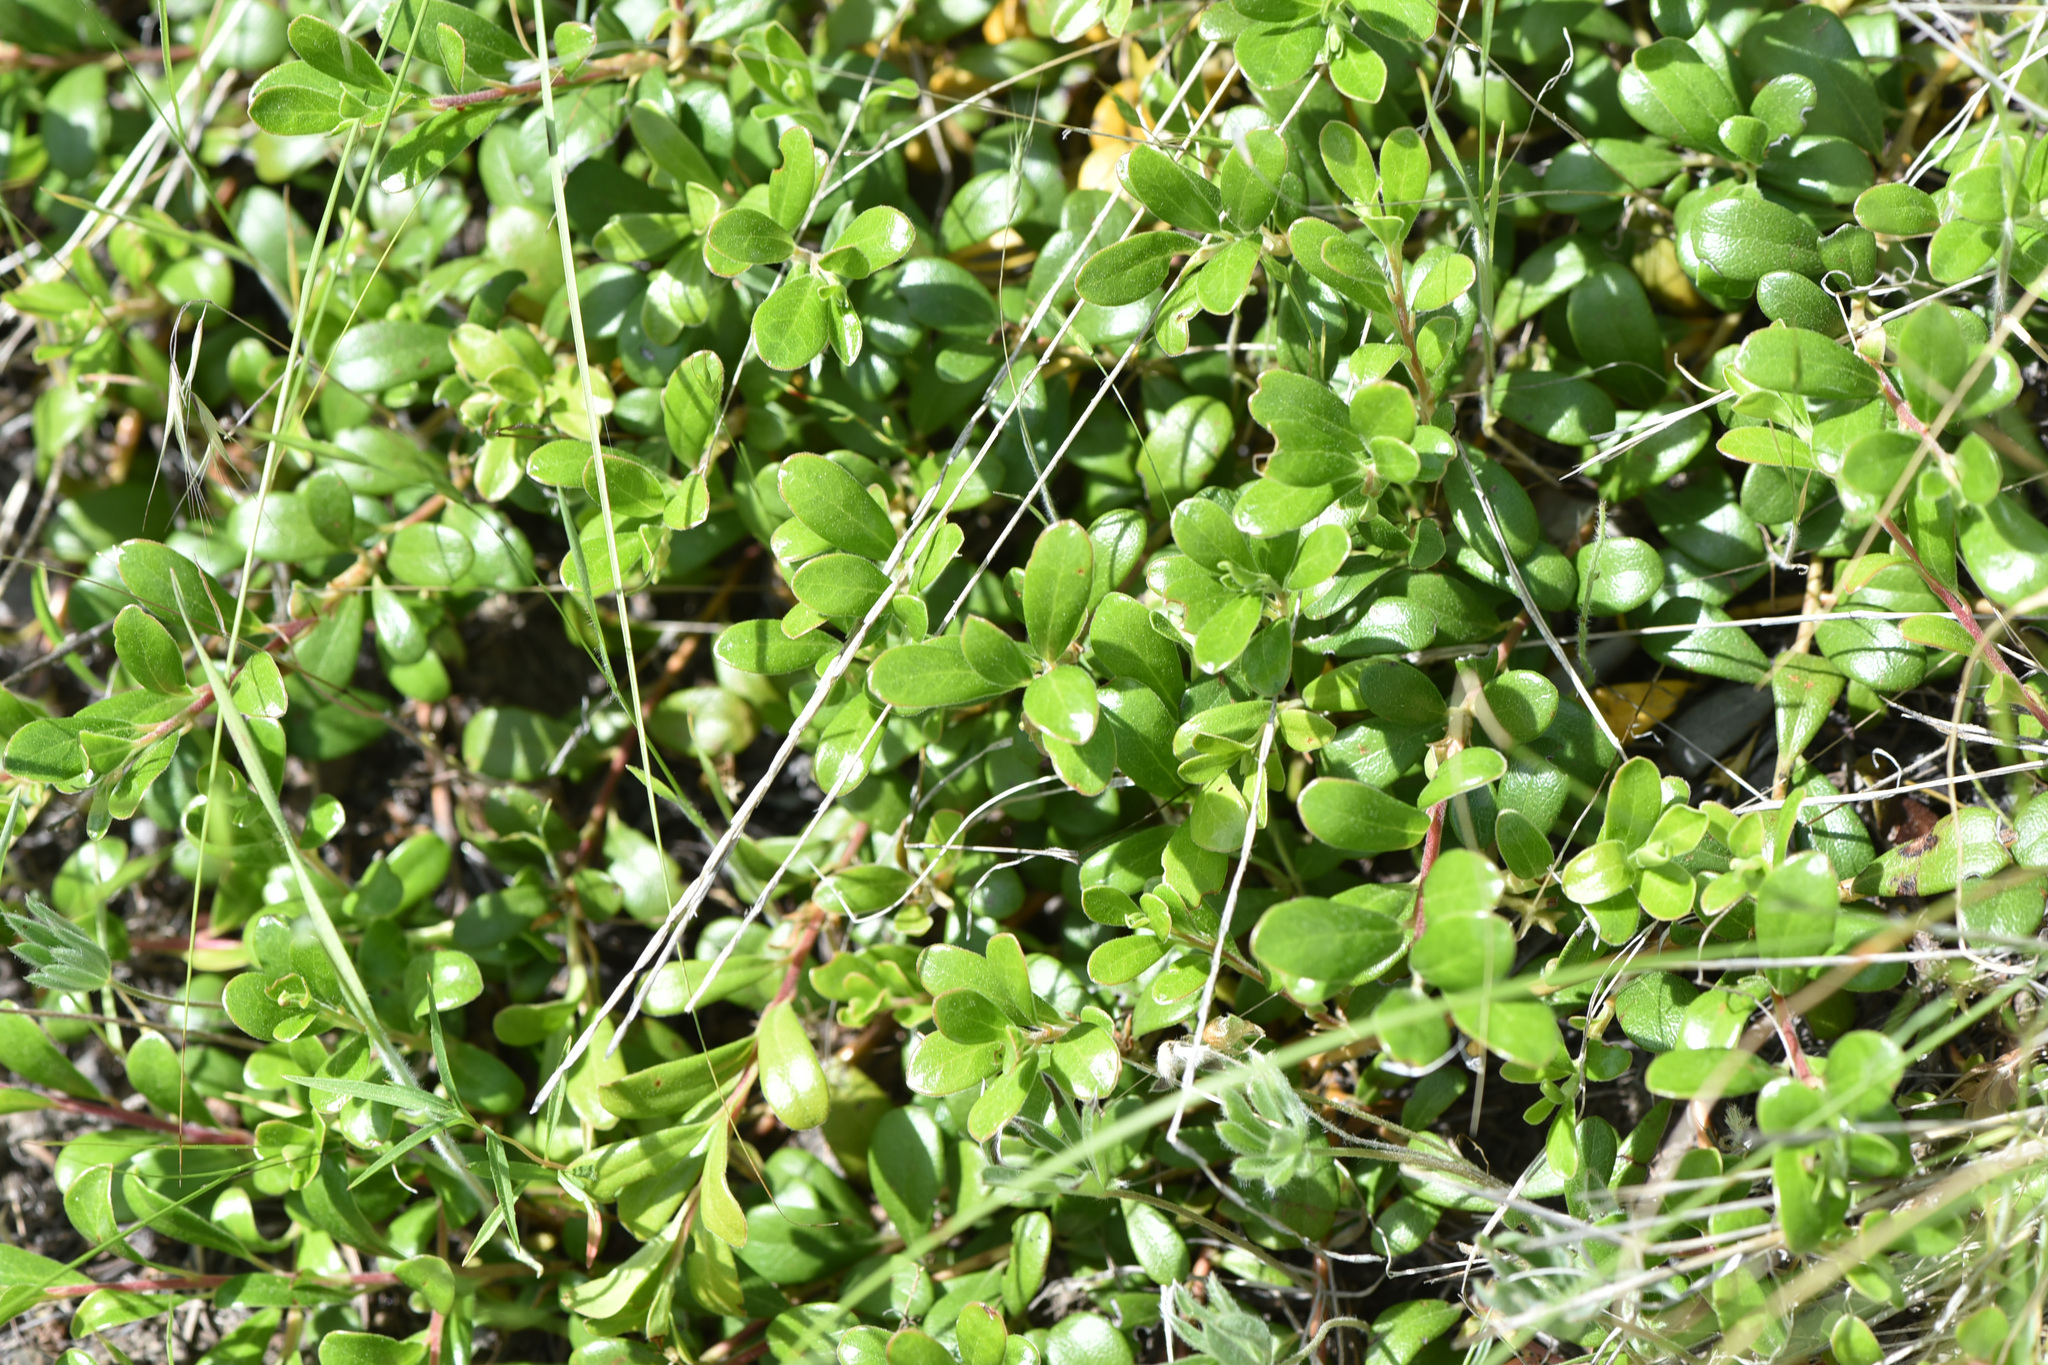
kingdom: Plantae
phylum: Tracheophyta
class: Magnoliopsida
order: Ericales
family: Ericaceae
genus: Arctostaphylos
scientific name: Arctostaphylos uva-ursi
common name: Bearberry
